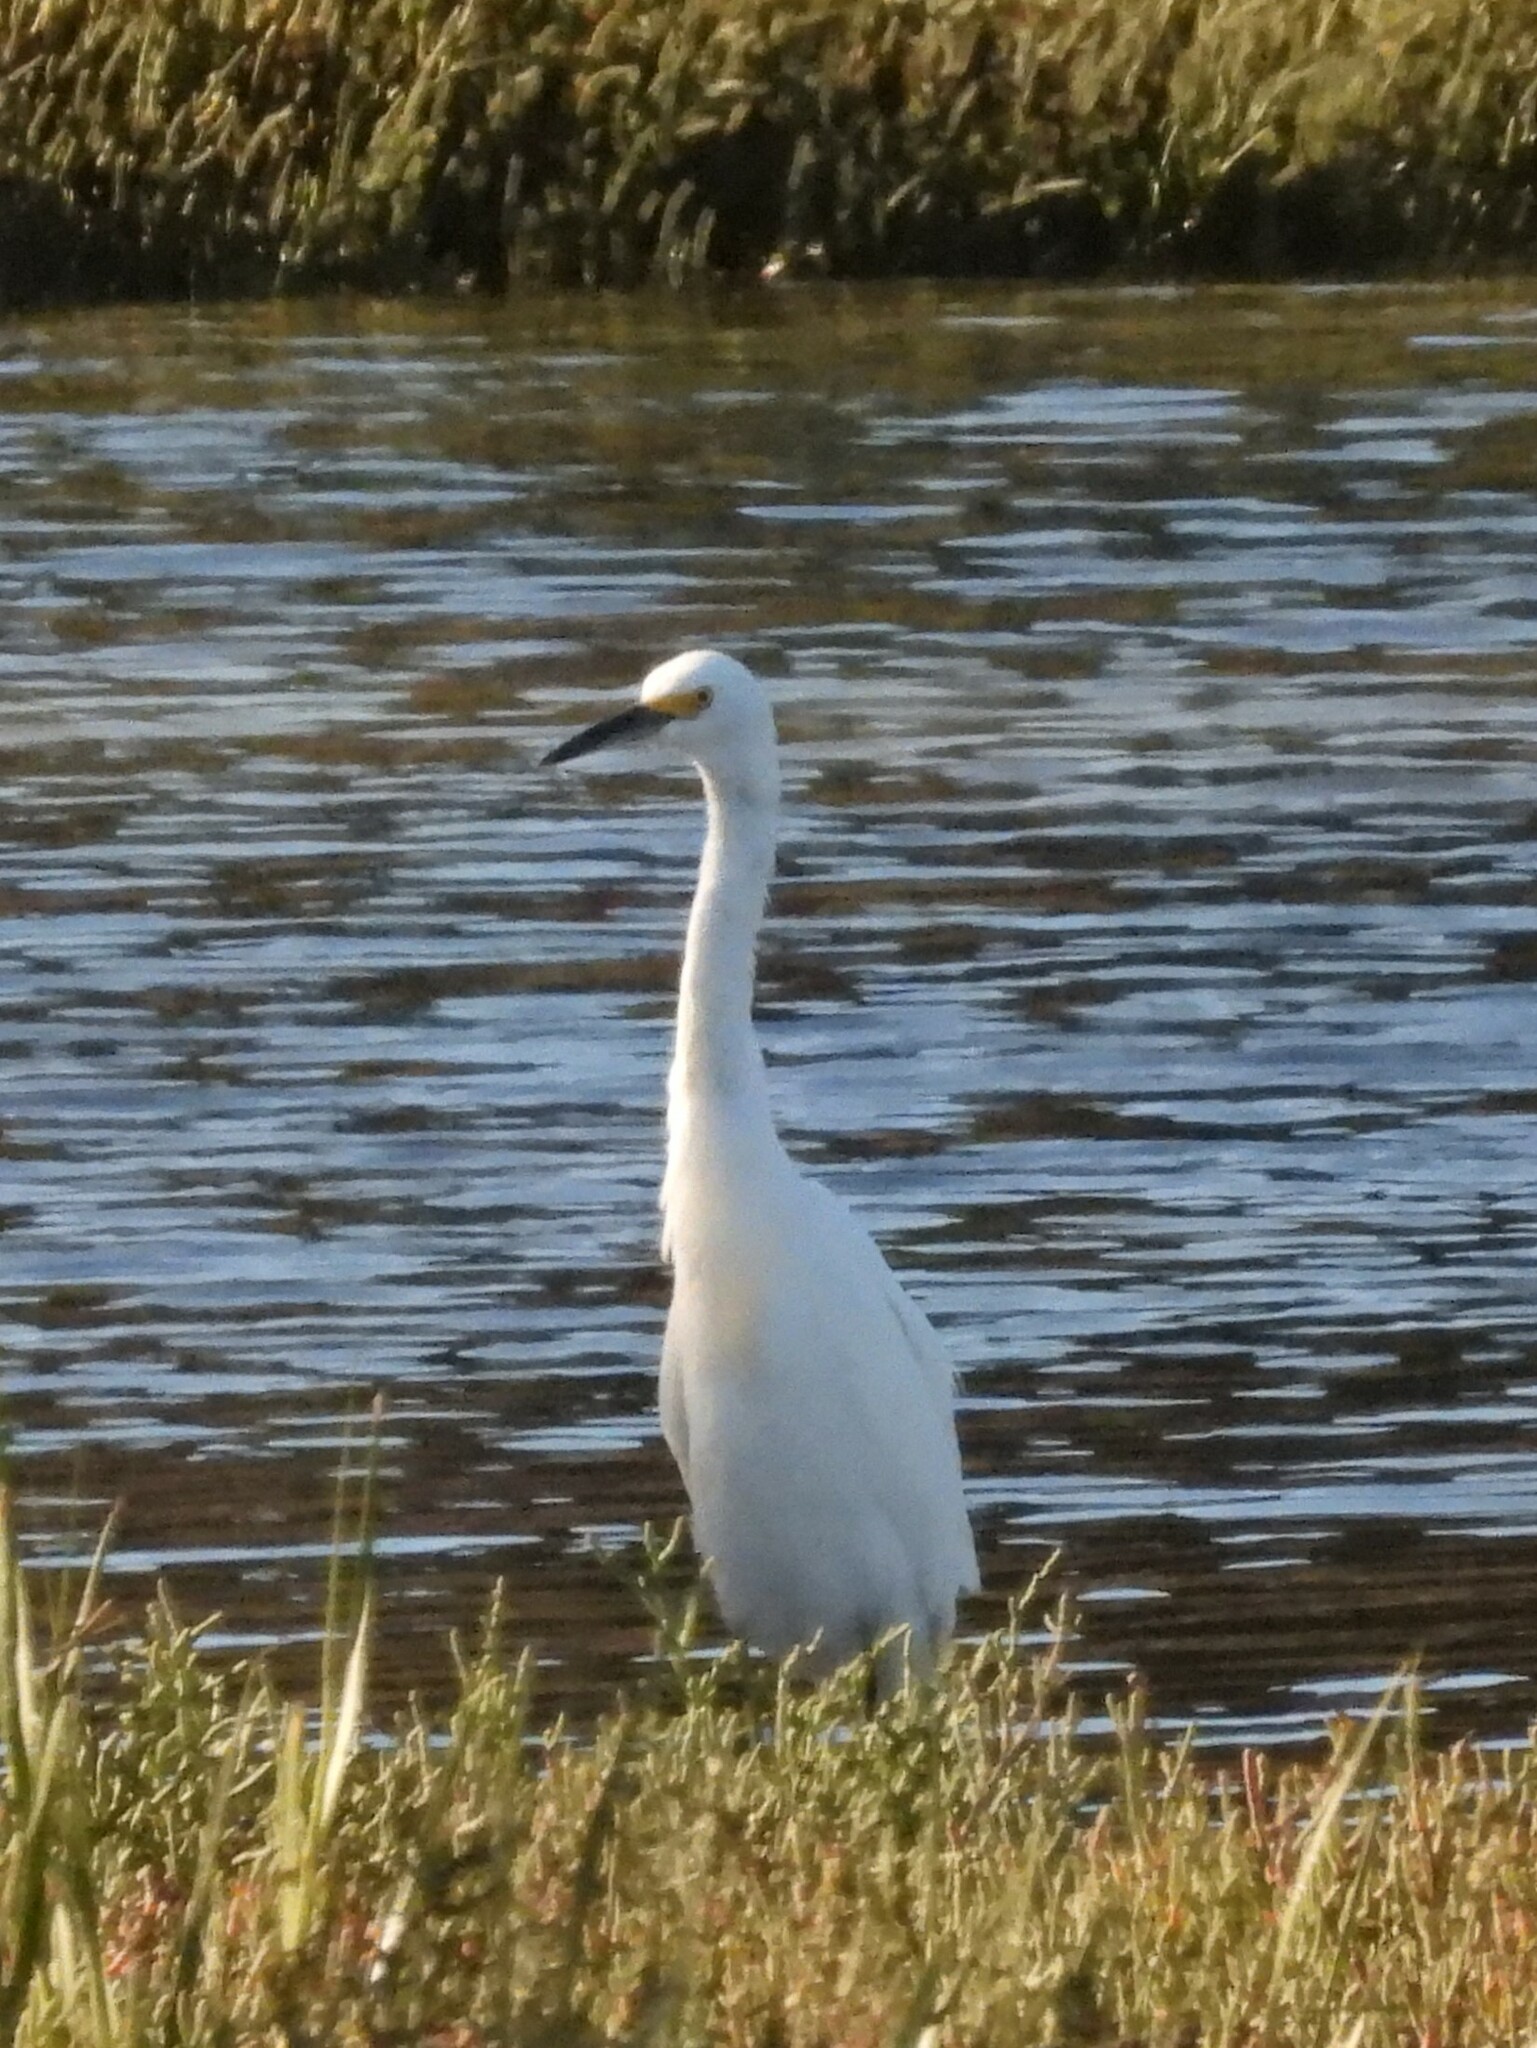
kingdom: Animalia
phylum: Chordata
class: Aves
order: Pelecaniformes
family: Ardeidae
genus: Egretta
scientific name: Egretta thula
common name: Snowy egret
